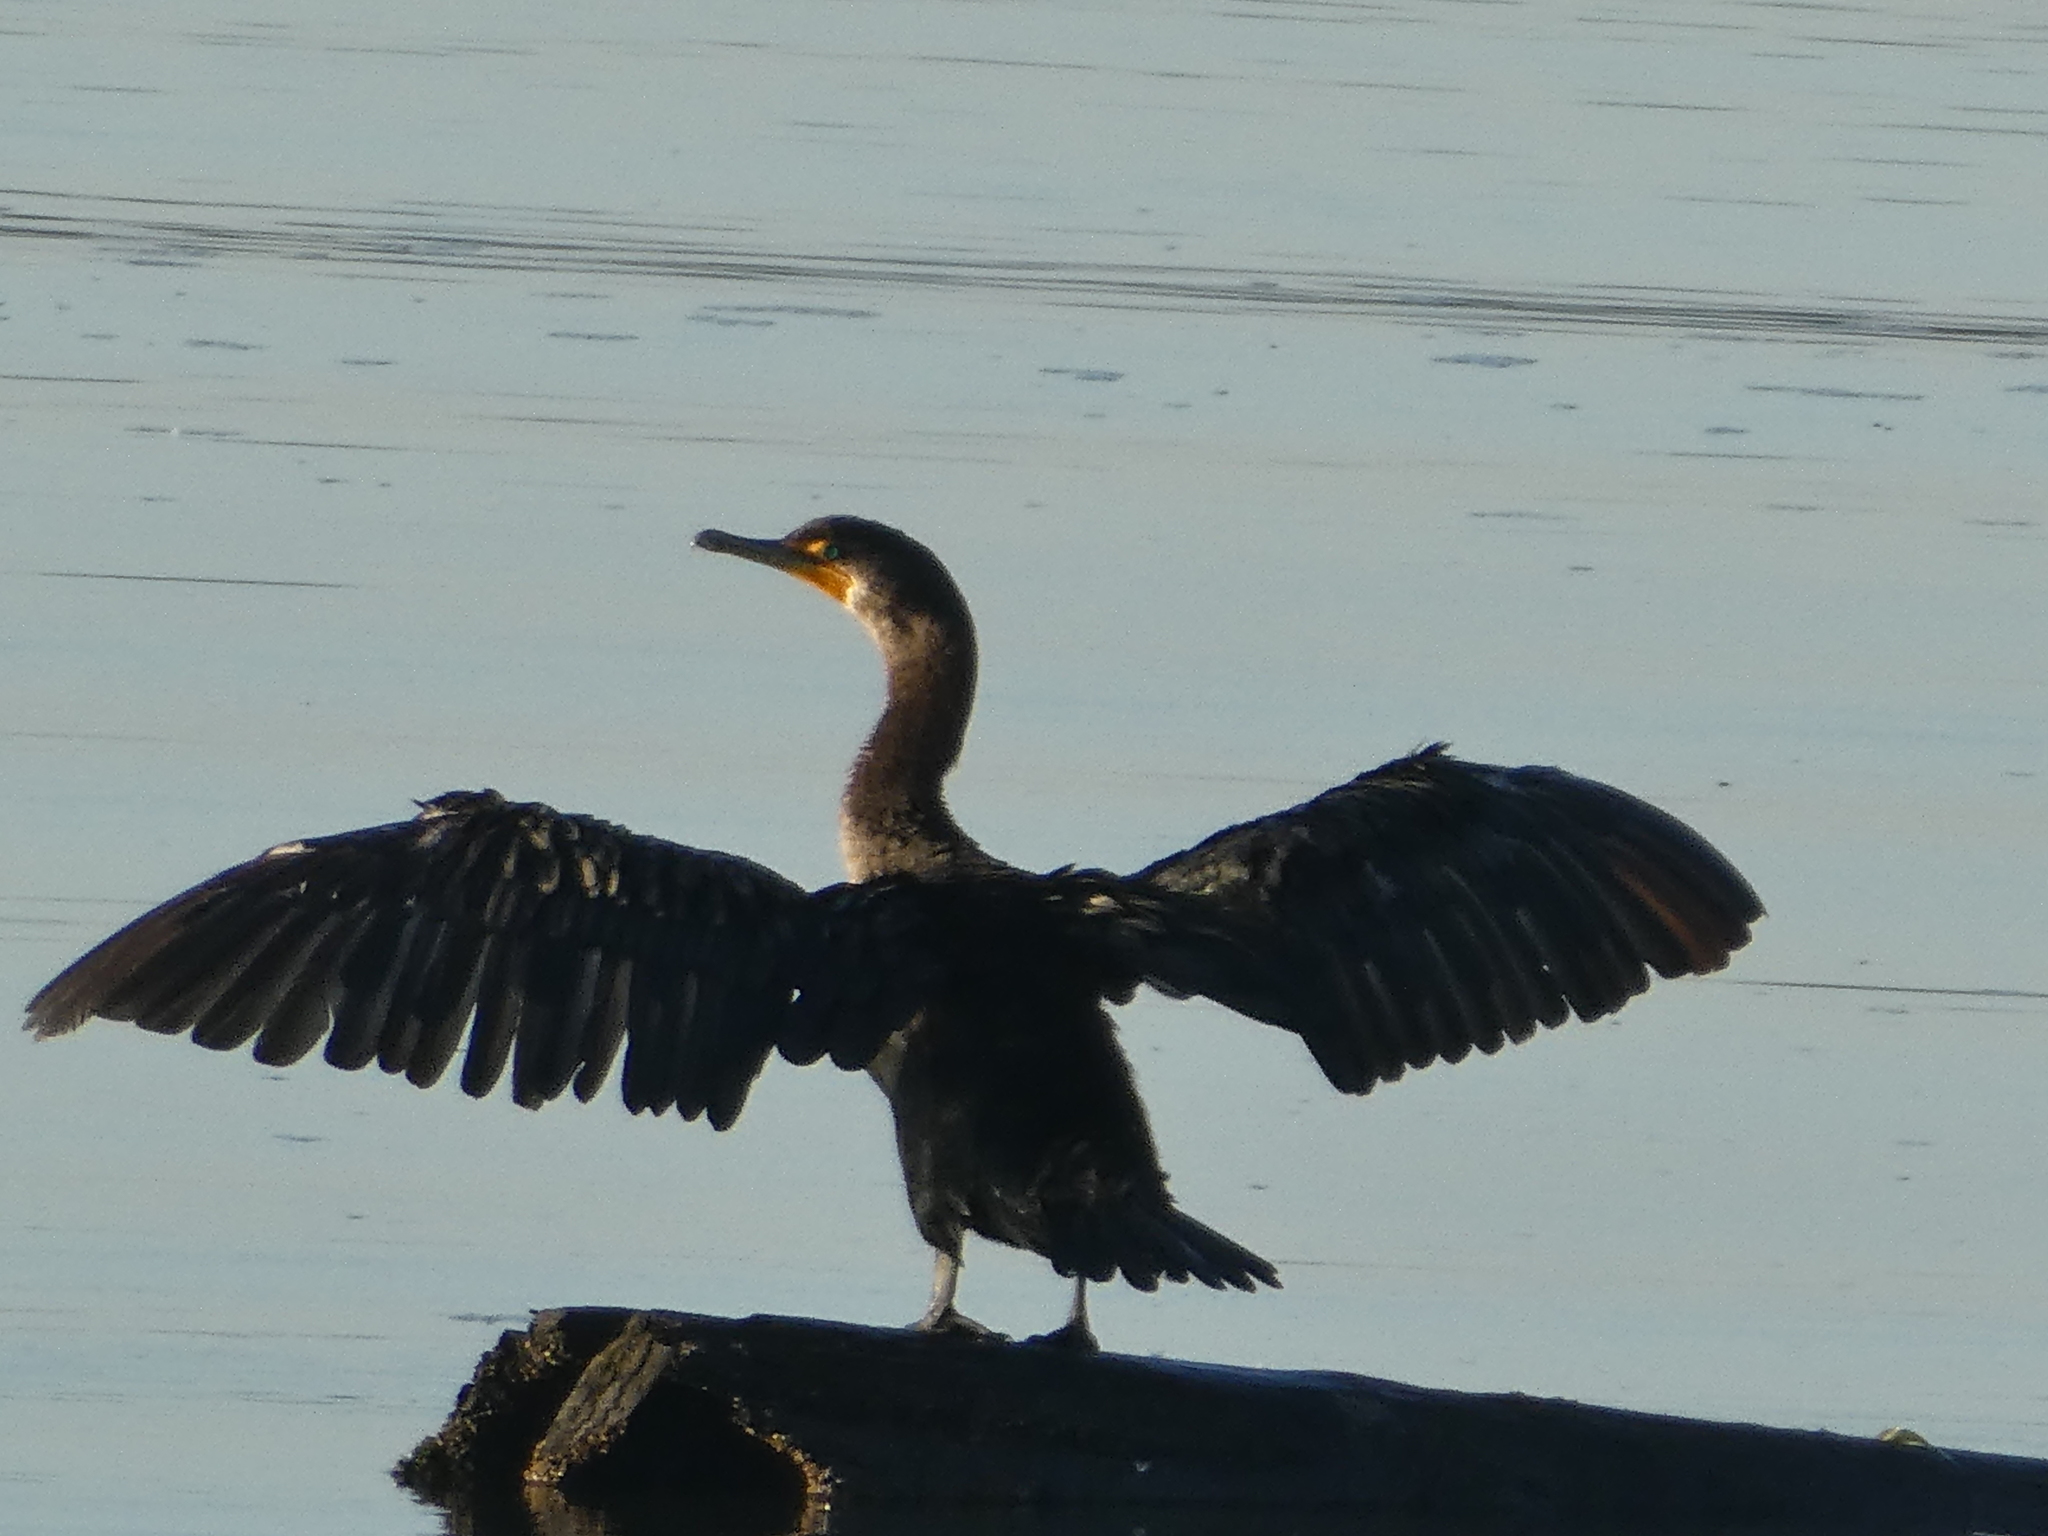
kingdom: Animalia
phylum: Chordata
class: Aves
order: Suliformes
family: Phalacrocoracidae
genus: Phalacrocorax
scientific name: Phalacrocorax auritus
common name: Double-crested cormorant
